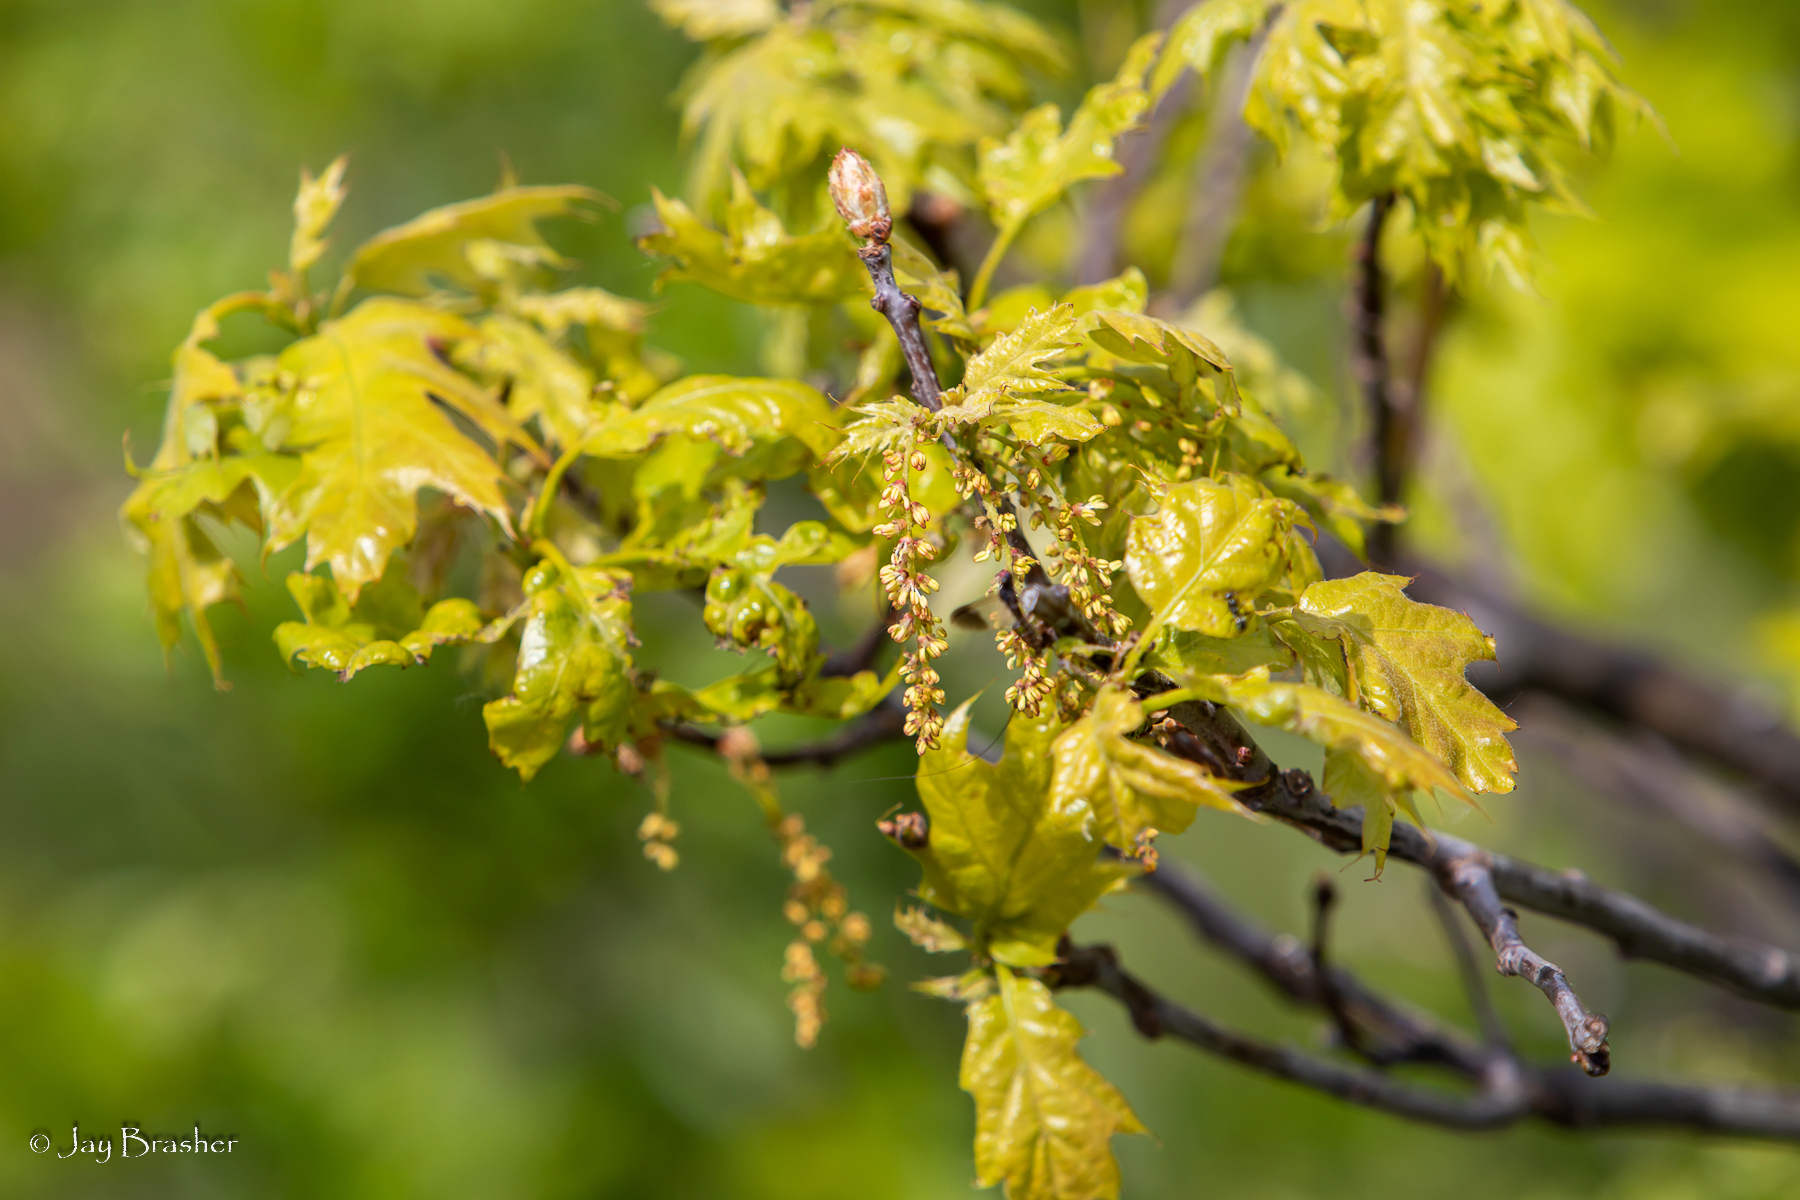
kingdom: Plantae
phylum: Tracheophyta
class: Magnoliopsida
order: Fagales
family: Fagaceae
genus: Quercus
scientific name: Quercus rubra
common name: Red oak
